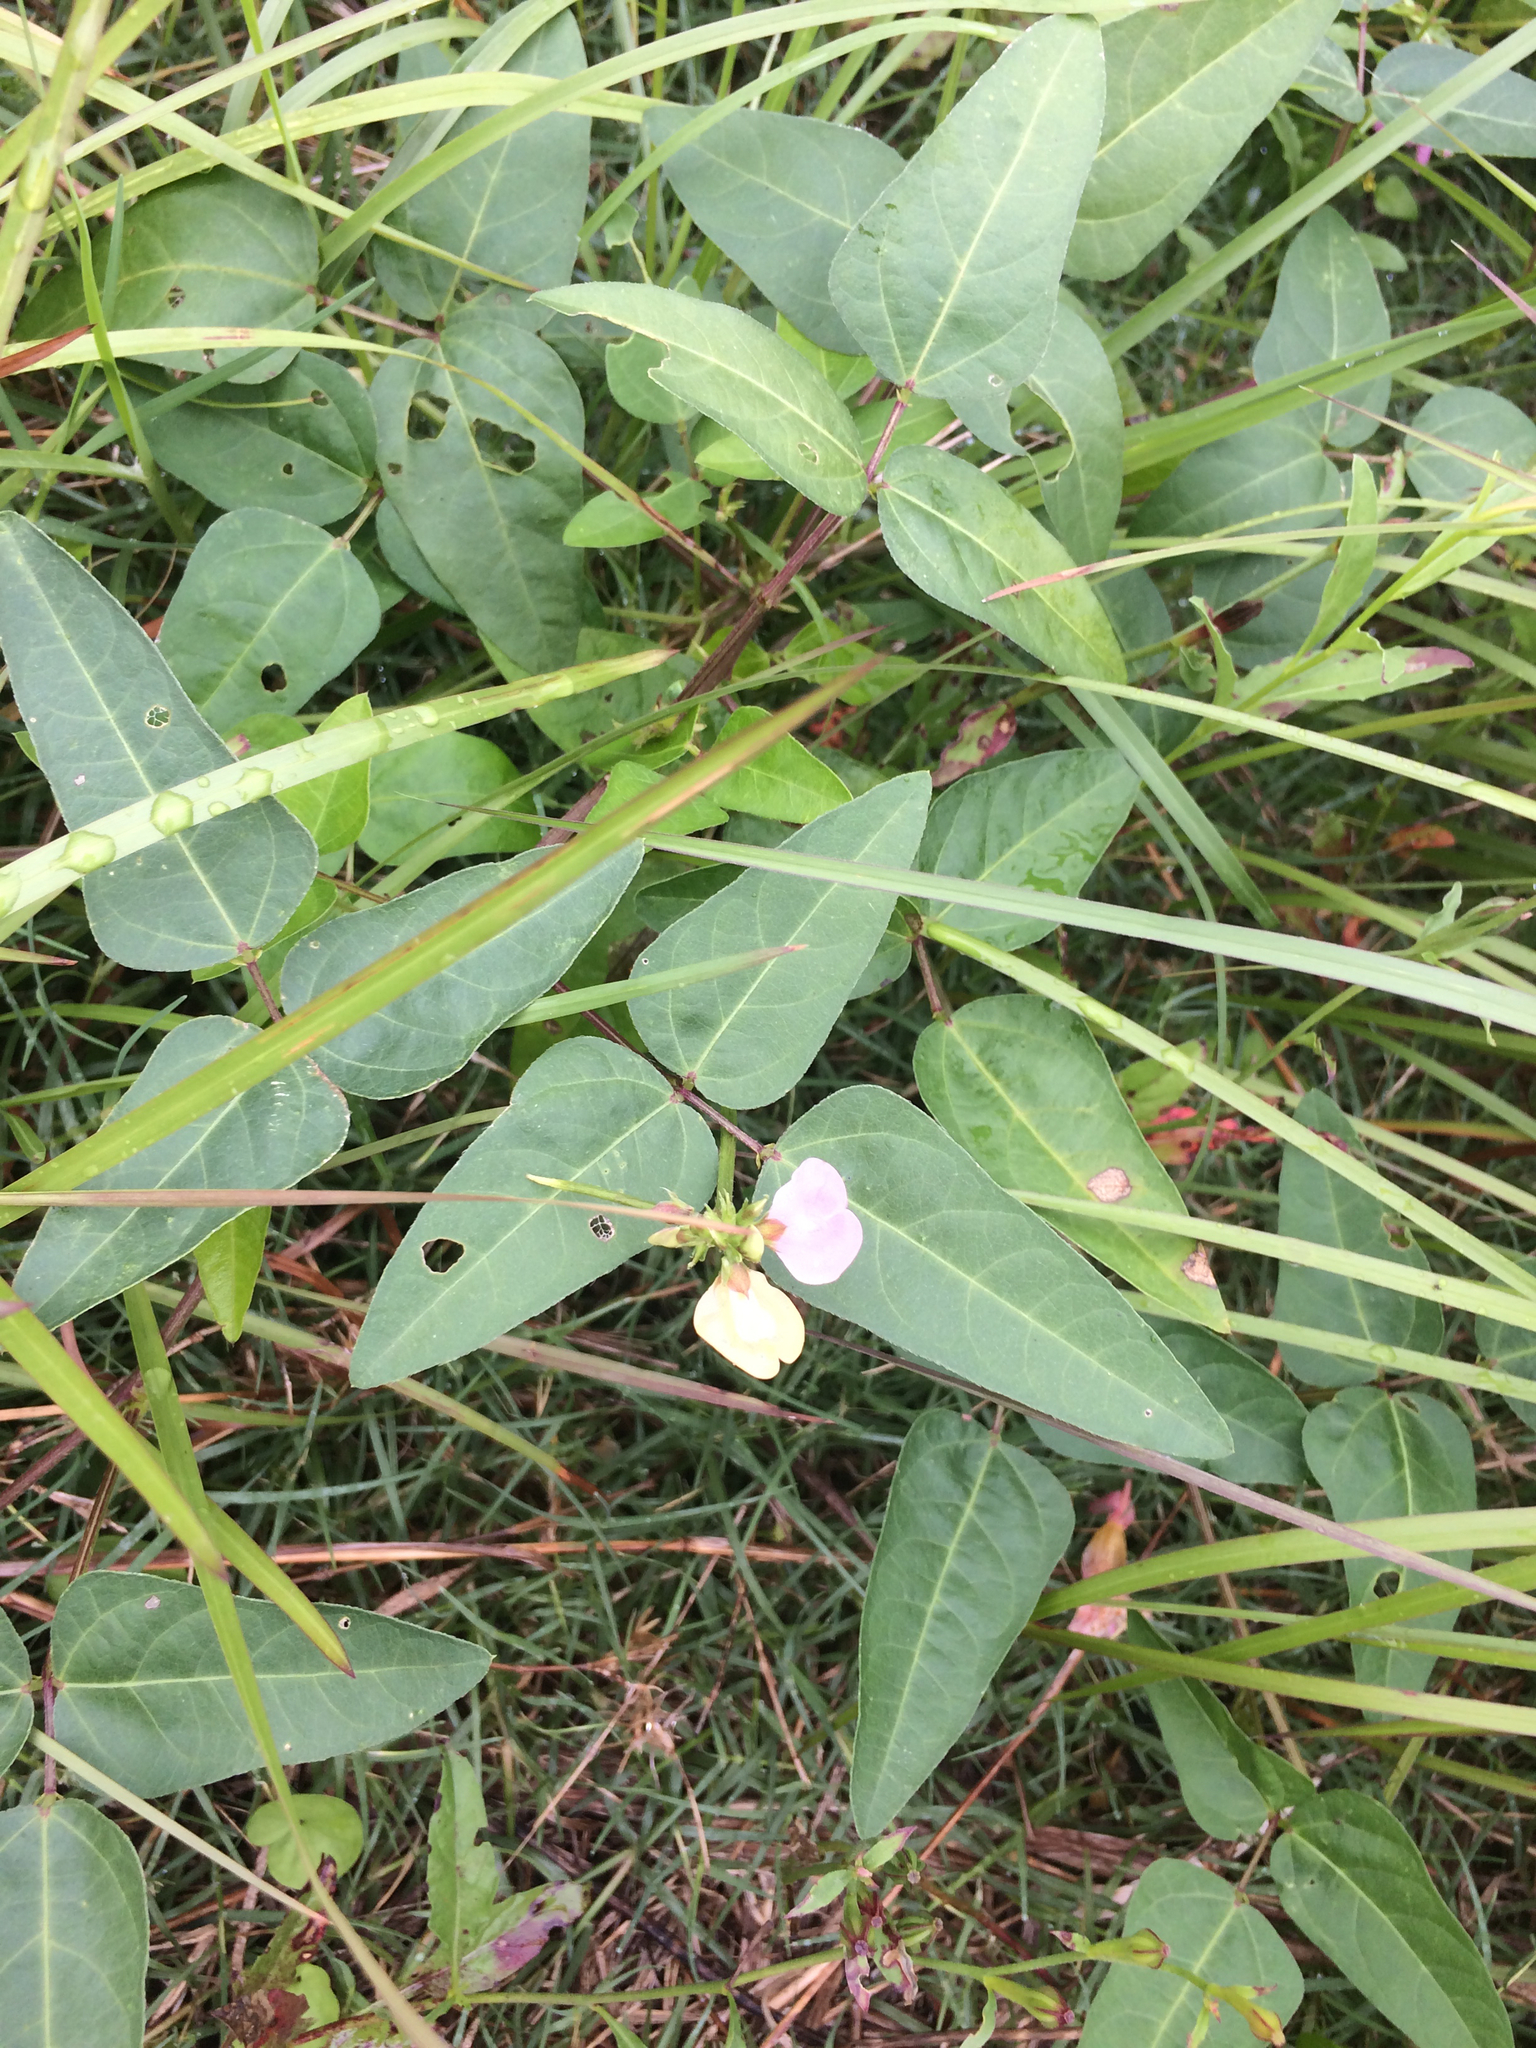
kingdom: Plantae
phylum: Tracheophyta
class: Magnoliopsida
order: Fabales
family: Fabaceae
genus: Strophostyles
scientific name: Strophostyles umbellata
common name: Perennial wild bean
